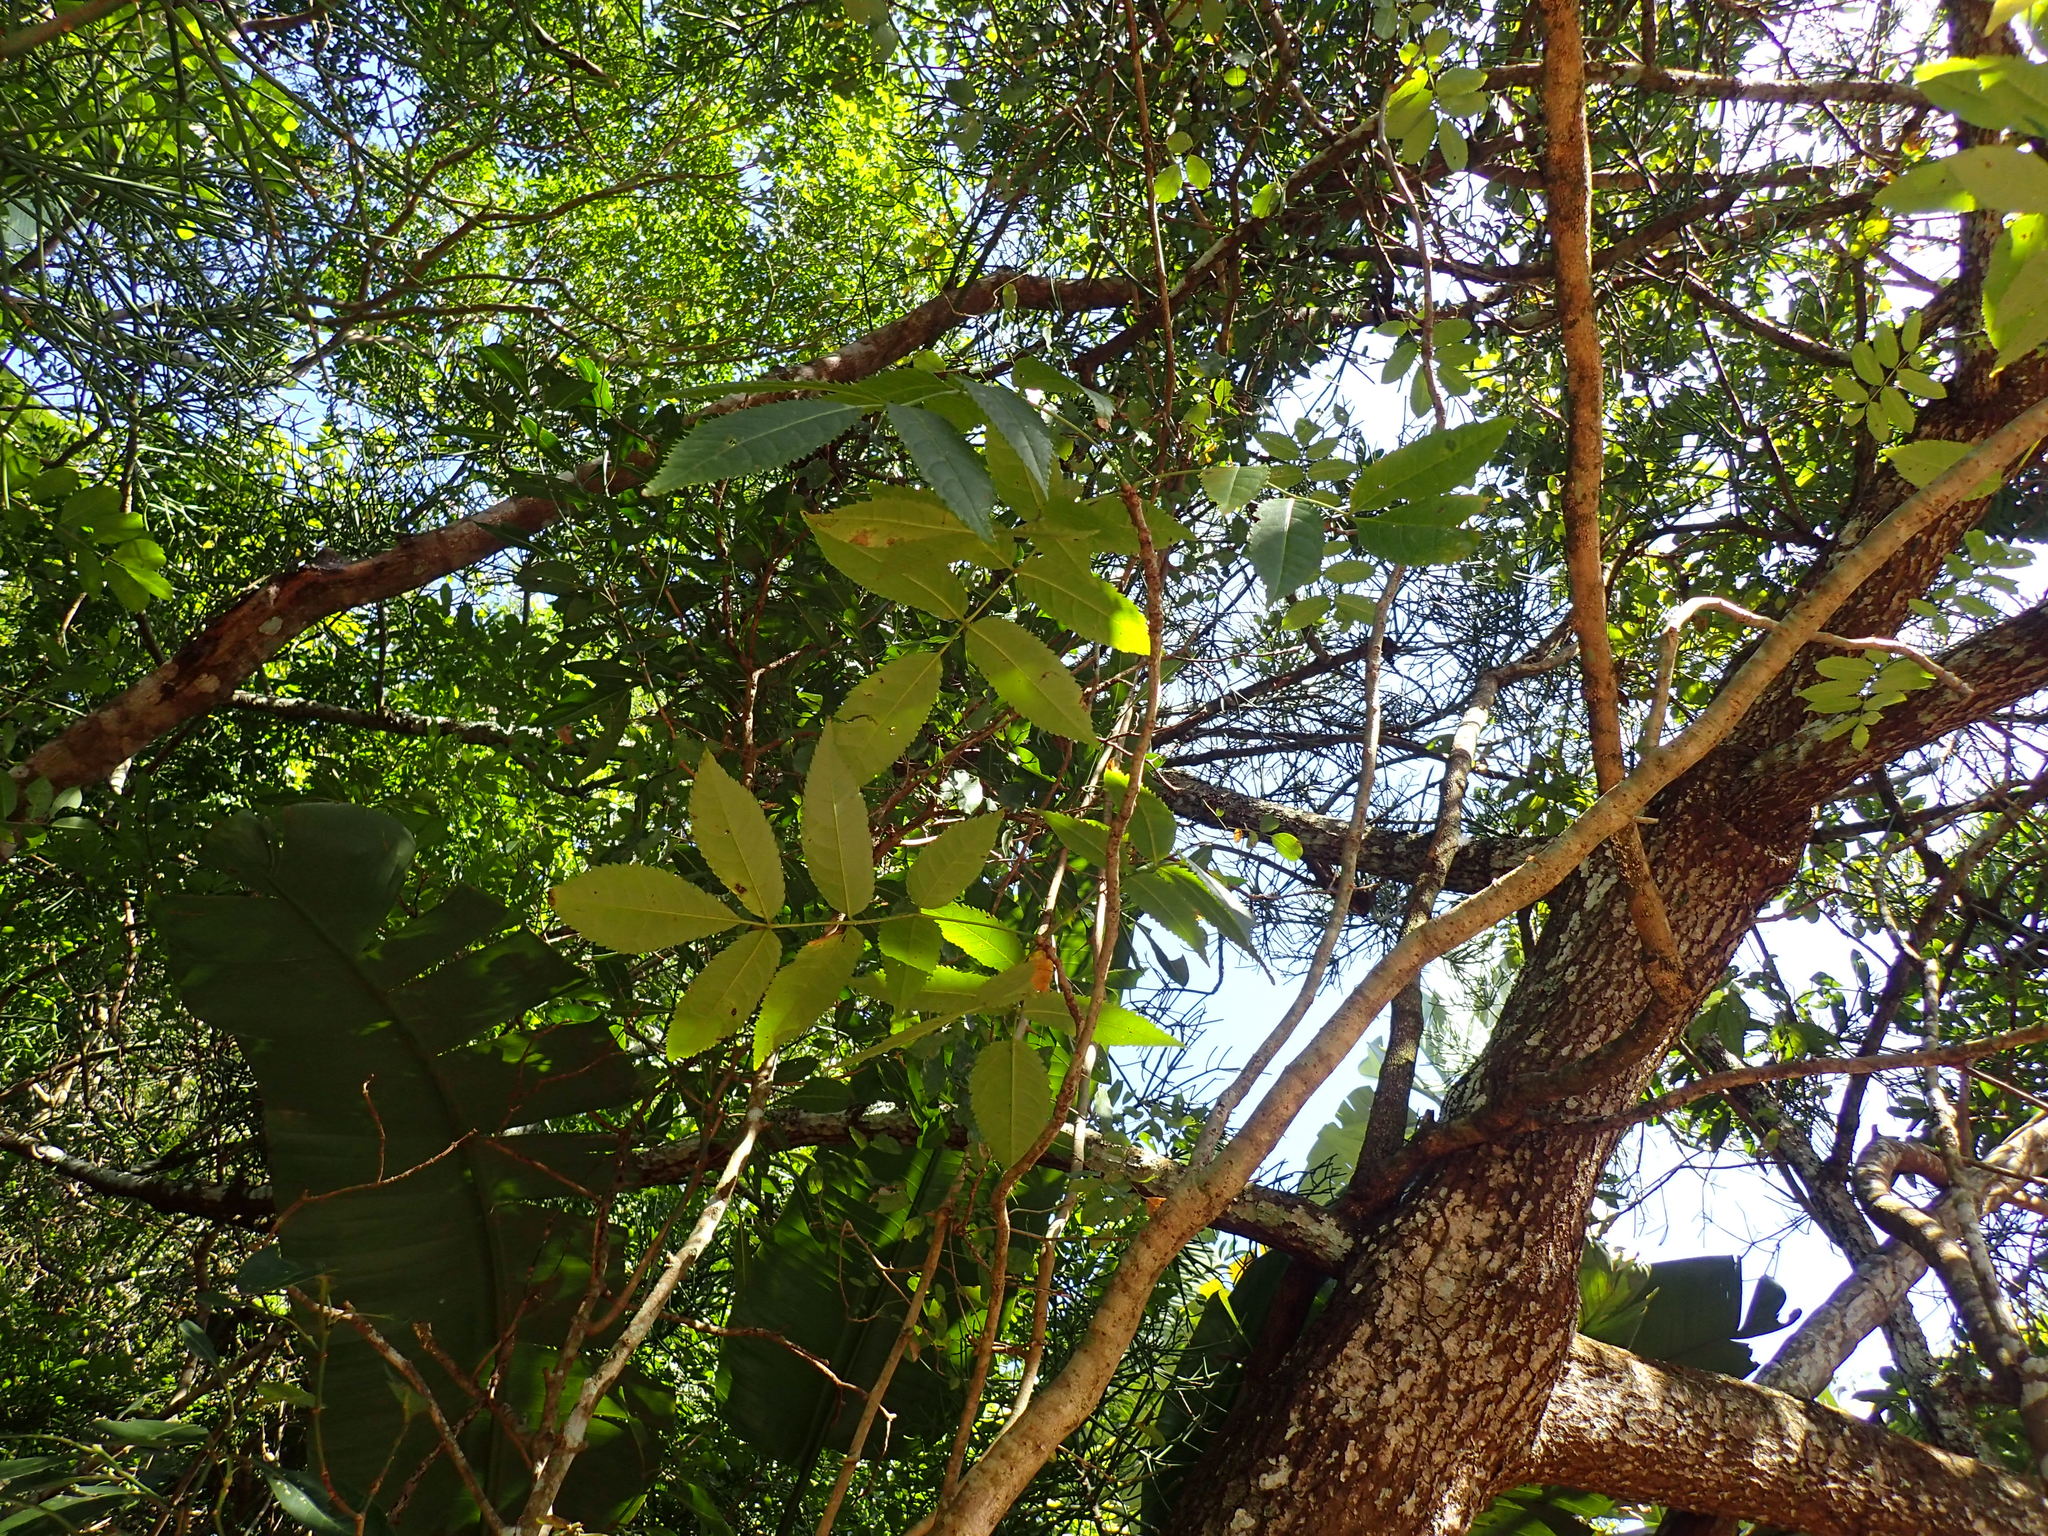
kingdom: Plantae
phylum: Tracheophyta
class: Magnoliopsida
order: Sapindales
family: Burseraceae
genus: Commiphora
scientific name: Commiphora woodii
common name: Forest corkwood
